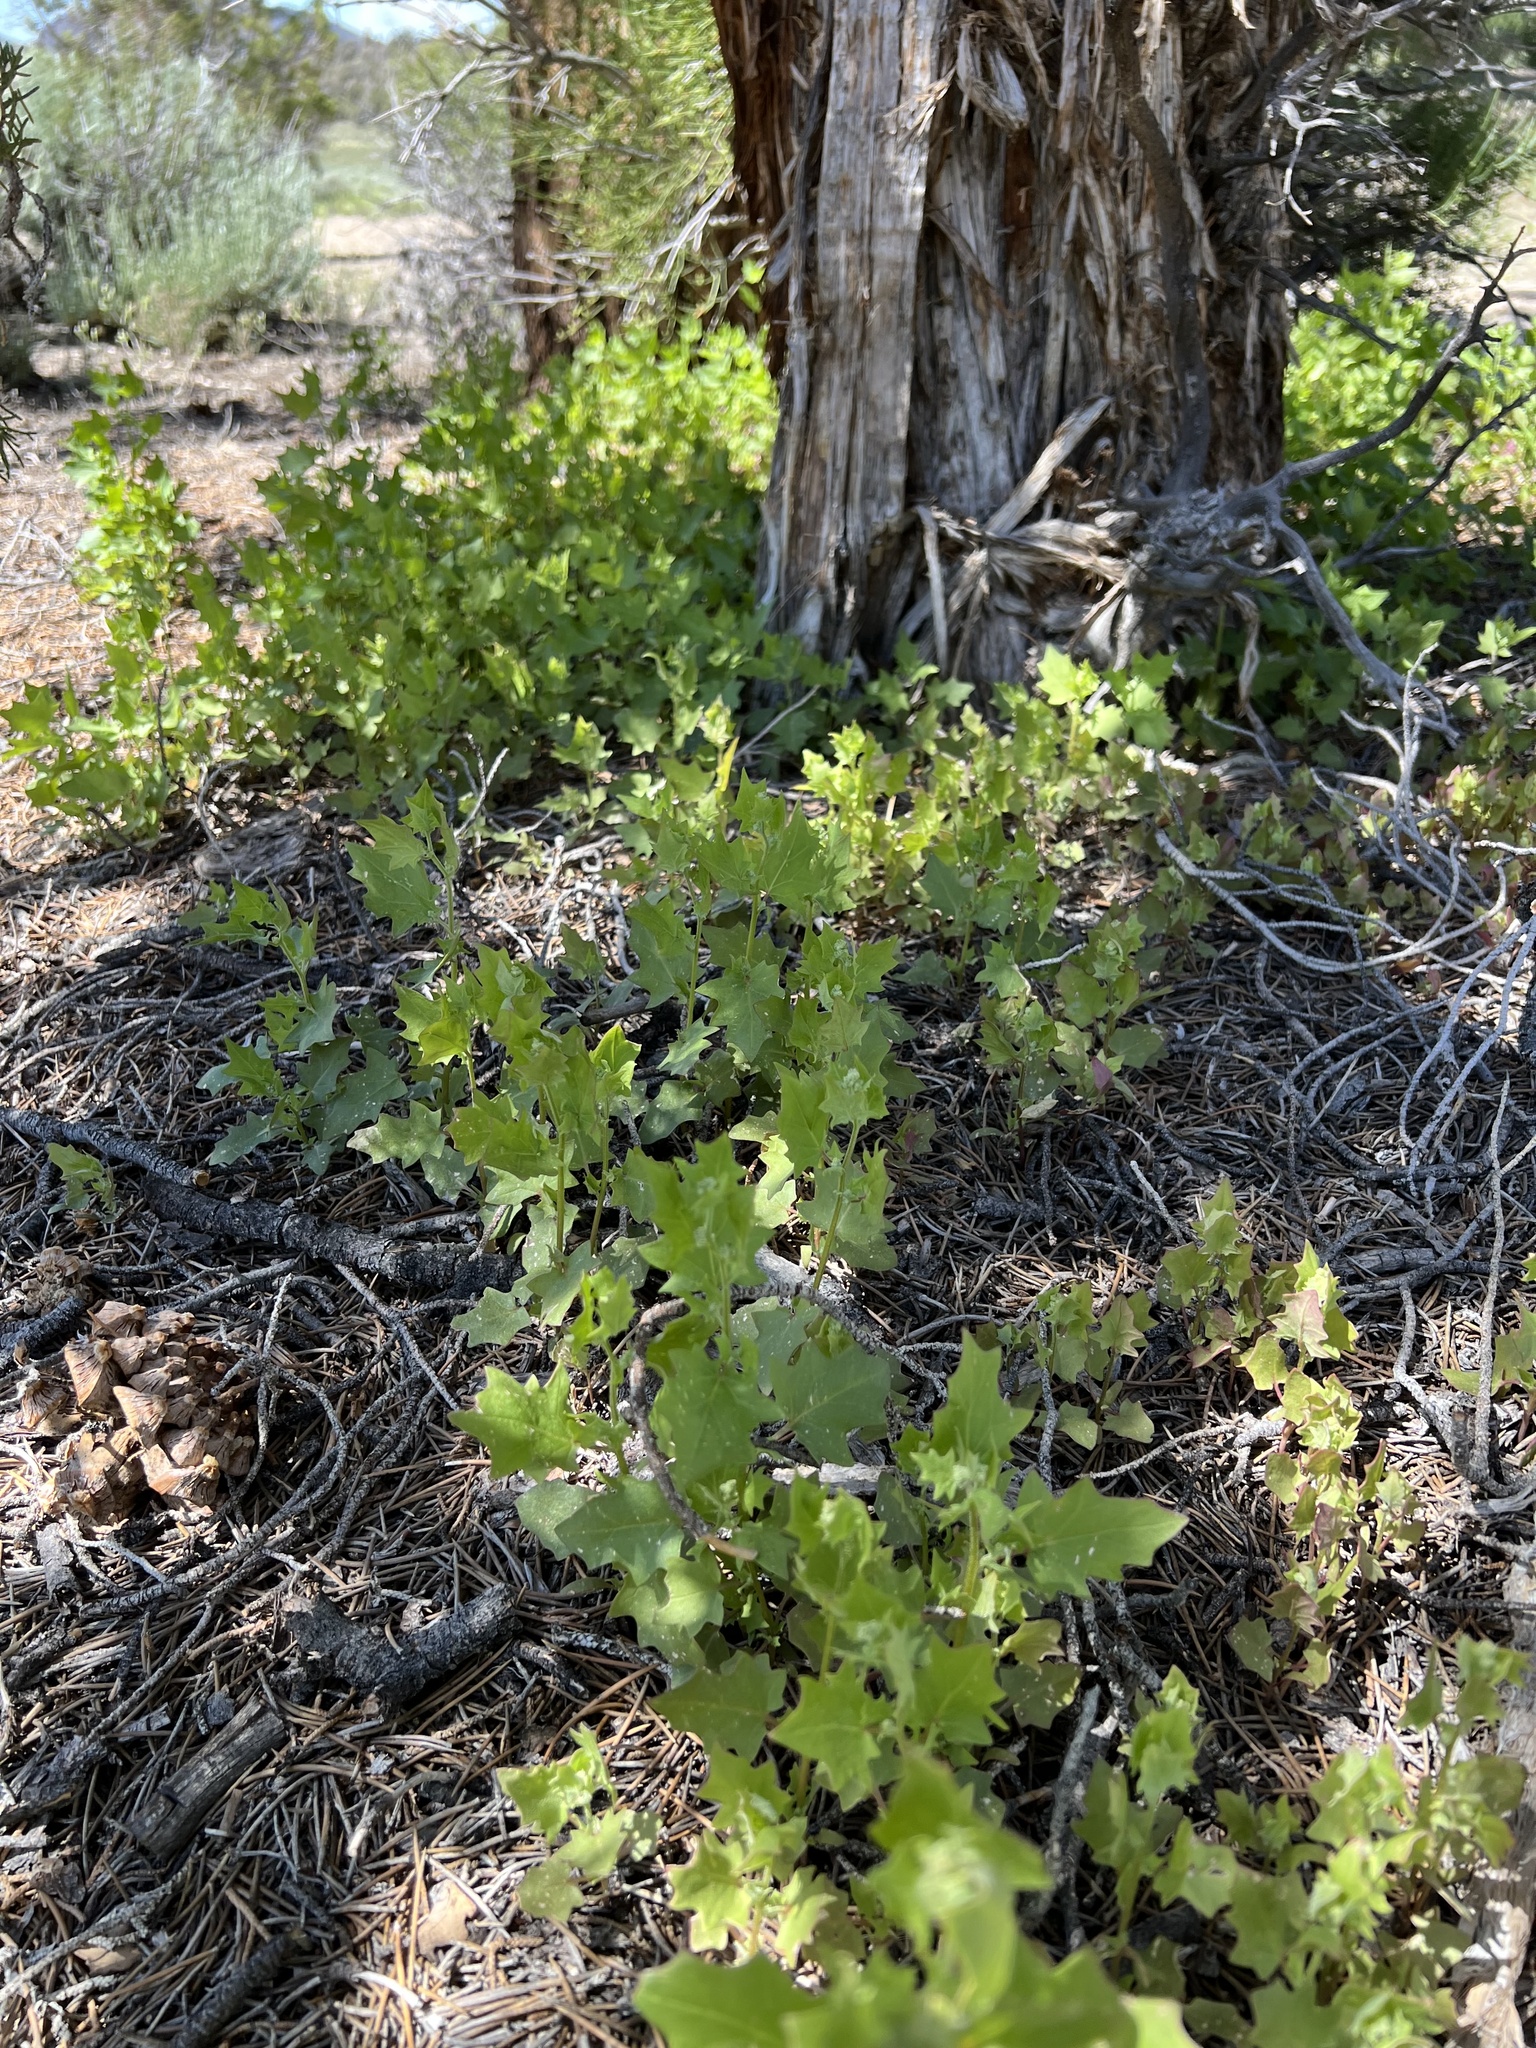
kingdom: Plantae
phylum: Tracheophyta
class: Magnoliopsida
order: Caryophyllales
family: Amaranthaceae
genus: Chenopodiastrum
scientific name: Chenopodiastrum simplex
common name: Large-seed goosefoot
